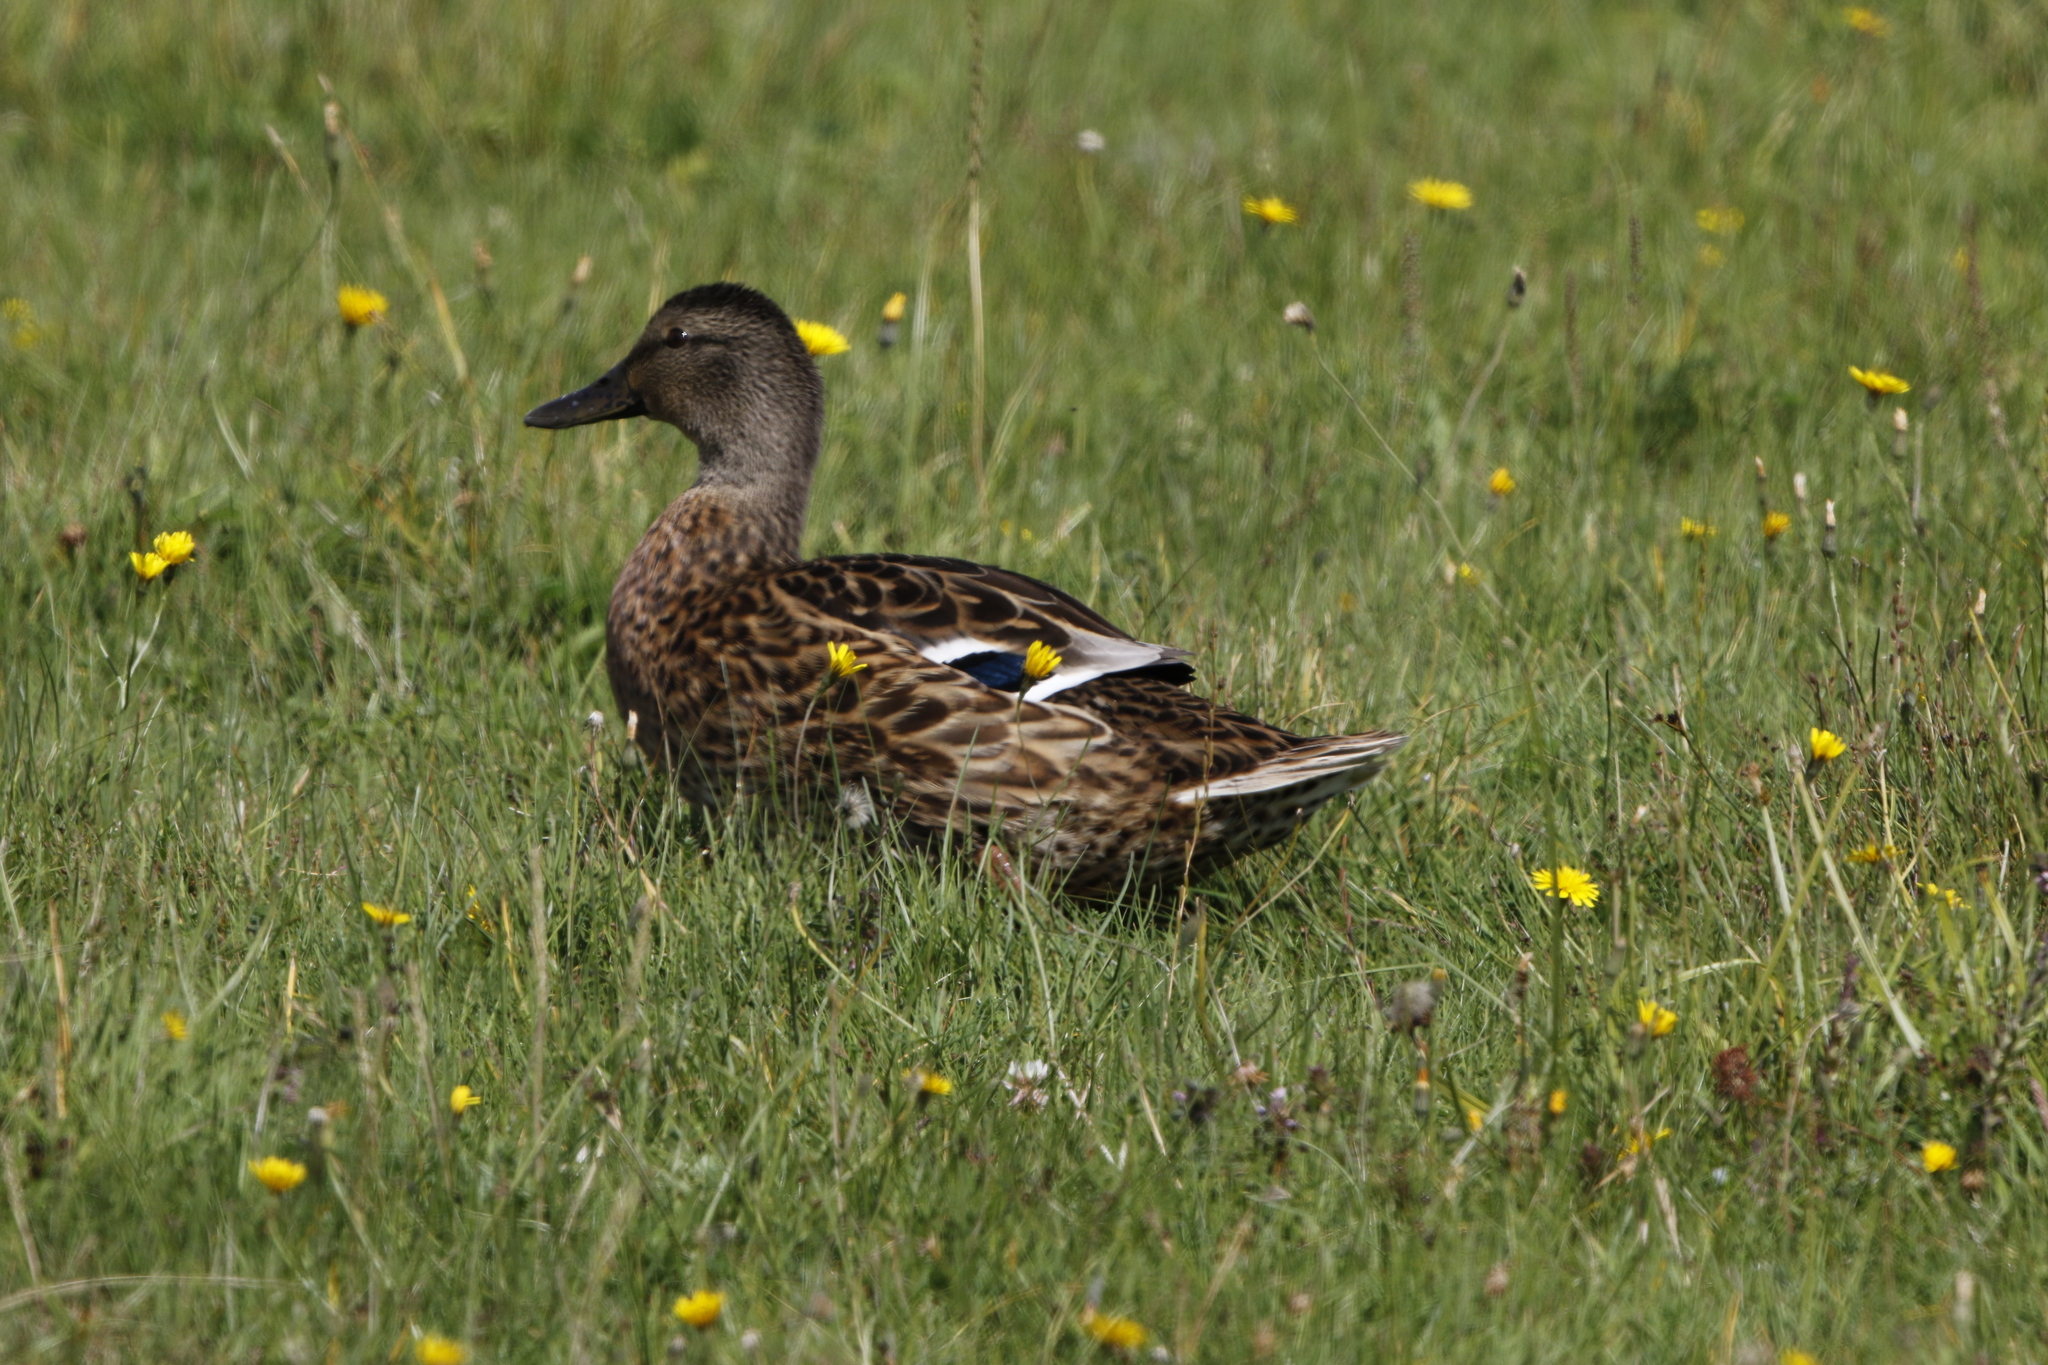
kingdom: Animalia
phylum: Chordata
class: Aves
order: Anseriformes
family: Anatidae
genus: Anas
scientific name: Anas platyrhynchos
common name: Mallard
